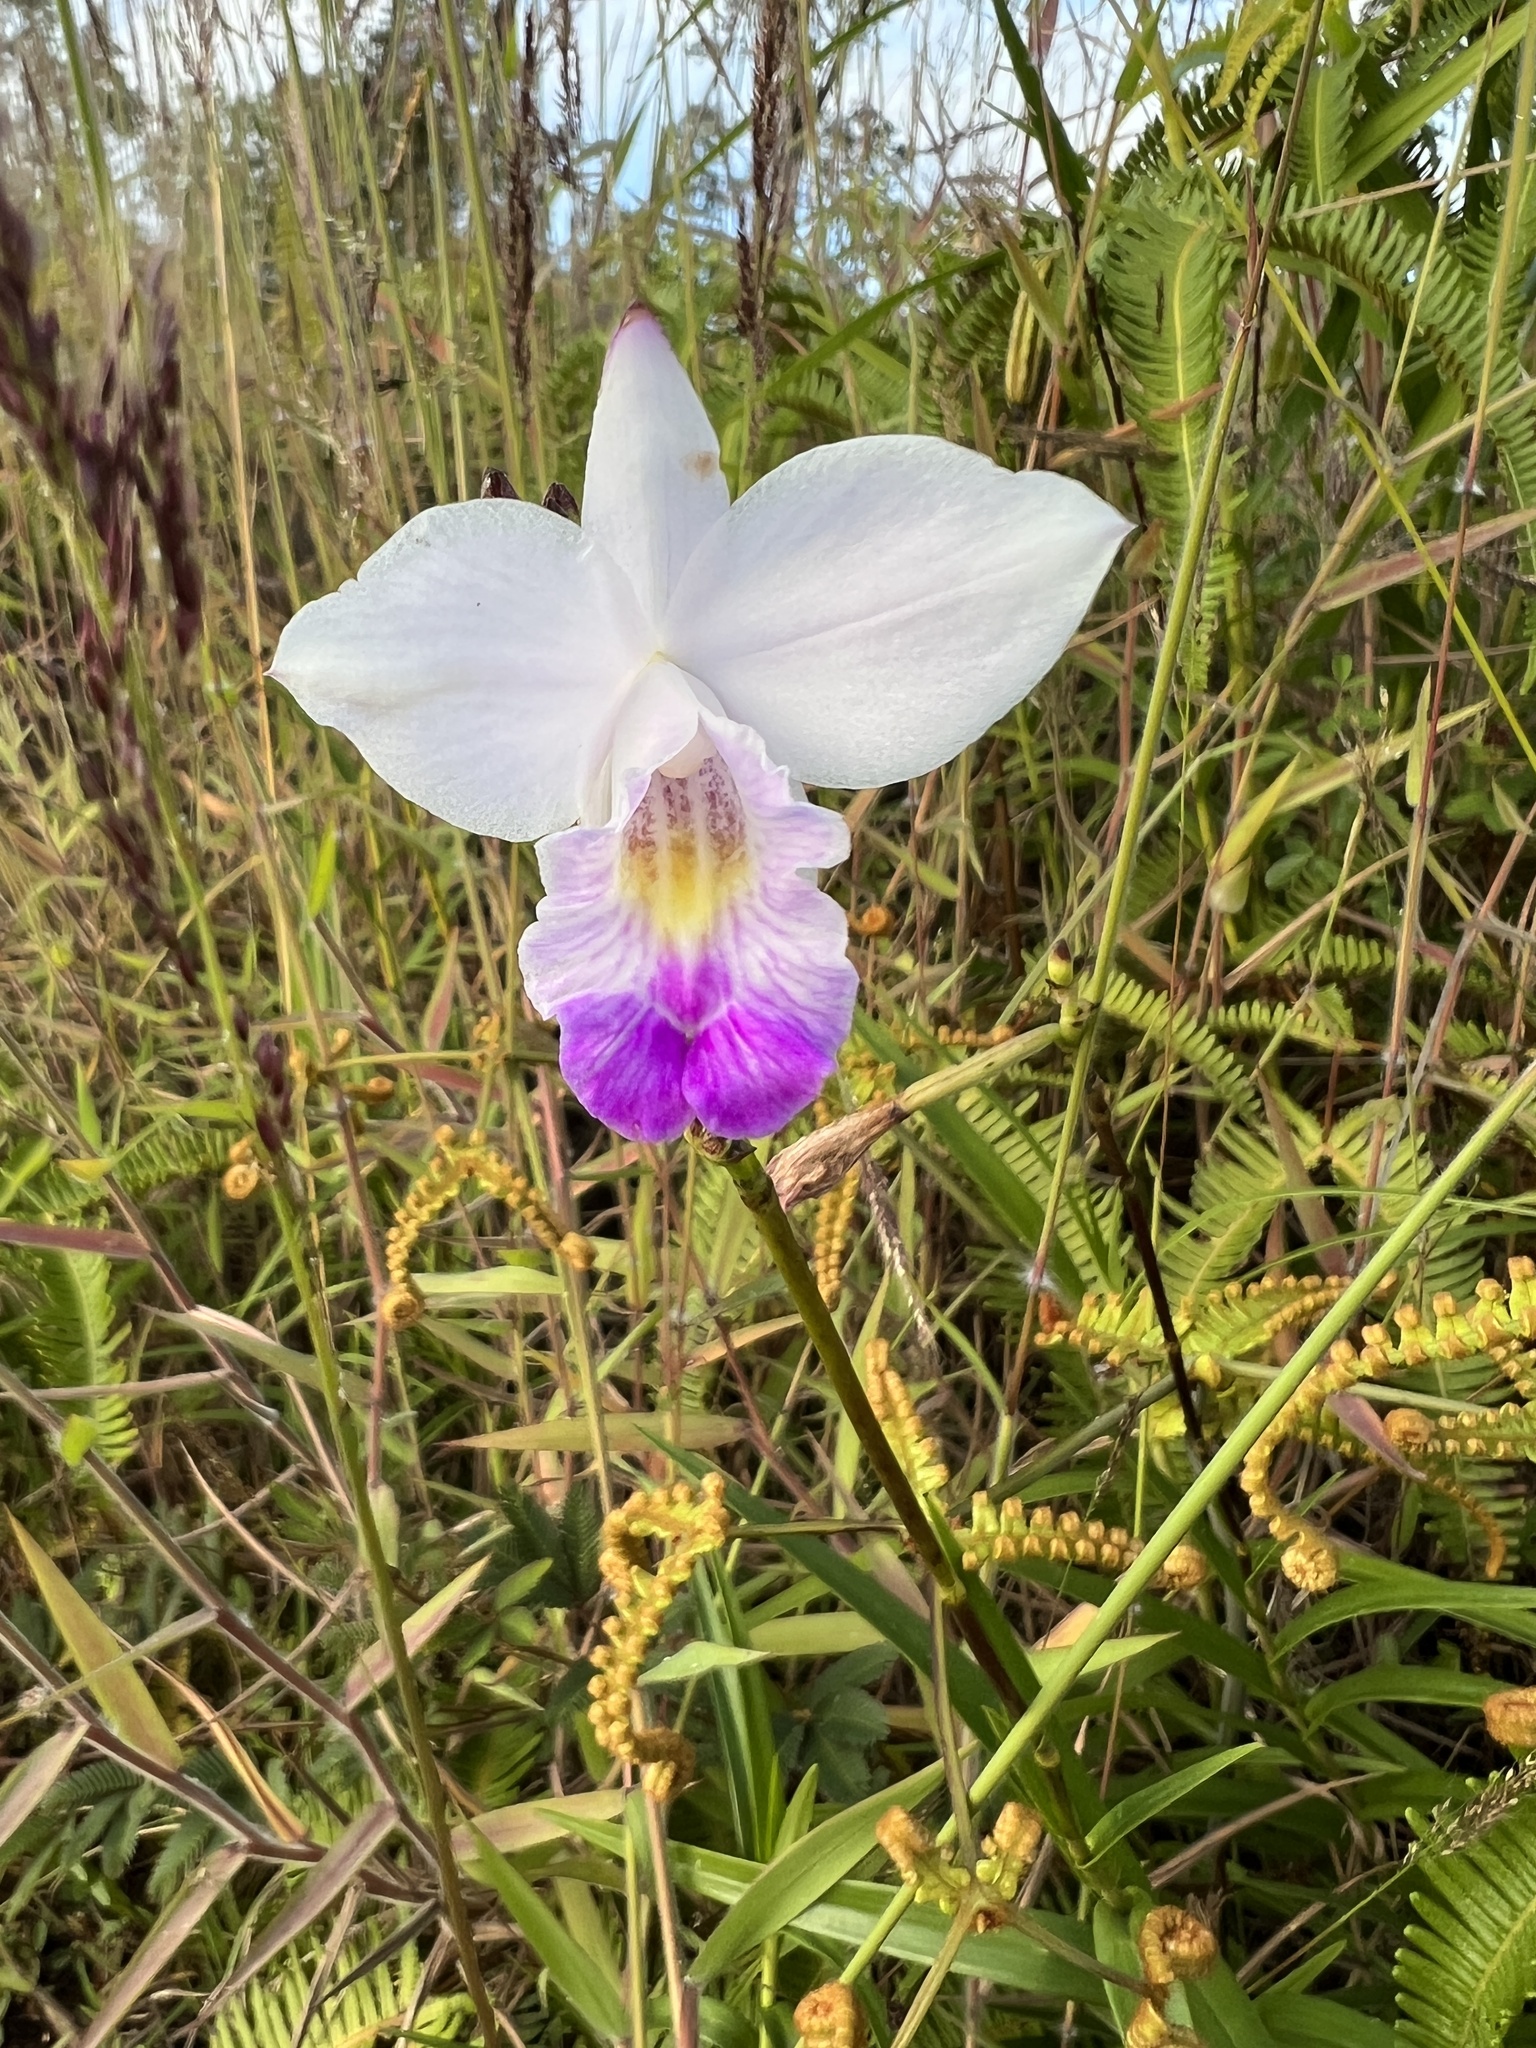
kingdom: Plantae
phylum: Tracheophyta
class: Liliopsida
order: Asparagales
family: Orchidaceae
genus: Arundina
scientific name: Arundina graminifolia
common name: Bamboo orchid
